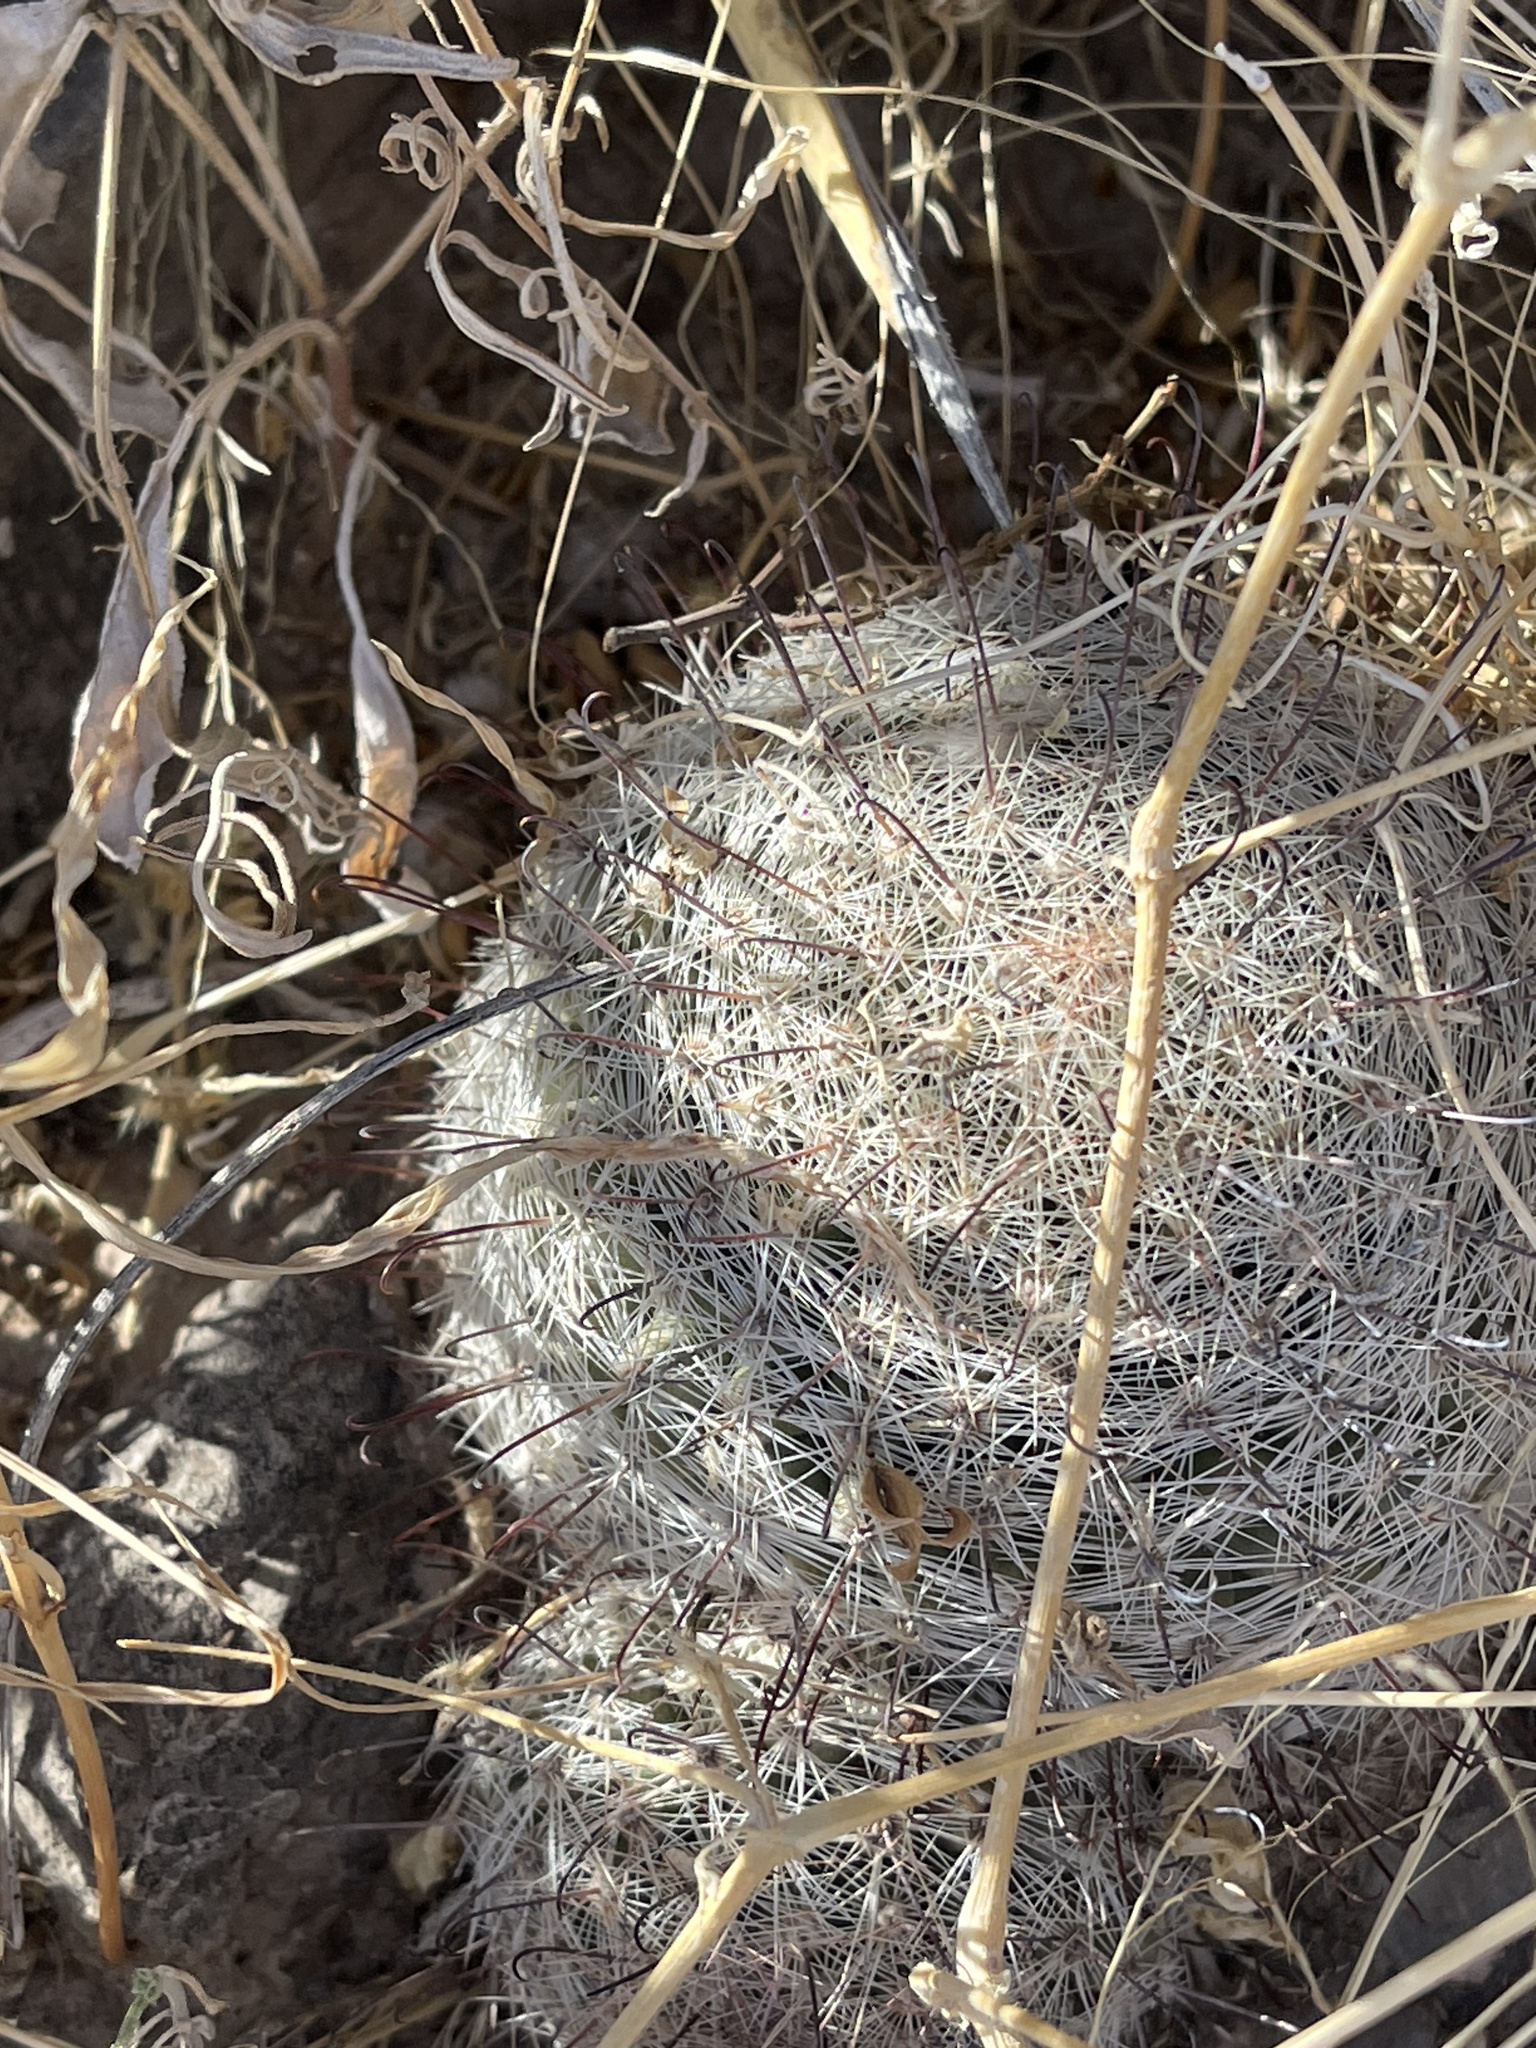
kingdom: Plantae
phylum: Tracheophyta
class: Magnoliopsida
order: Caryophyllales
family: Cactaceae
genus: Cochemiea
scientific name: Cochemiea grahamii
